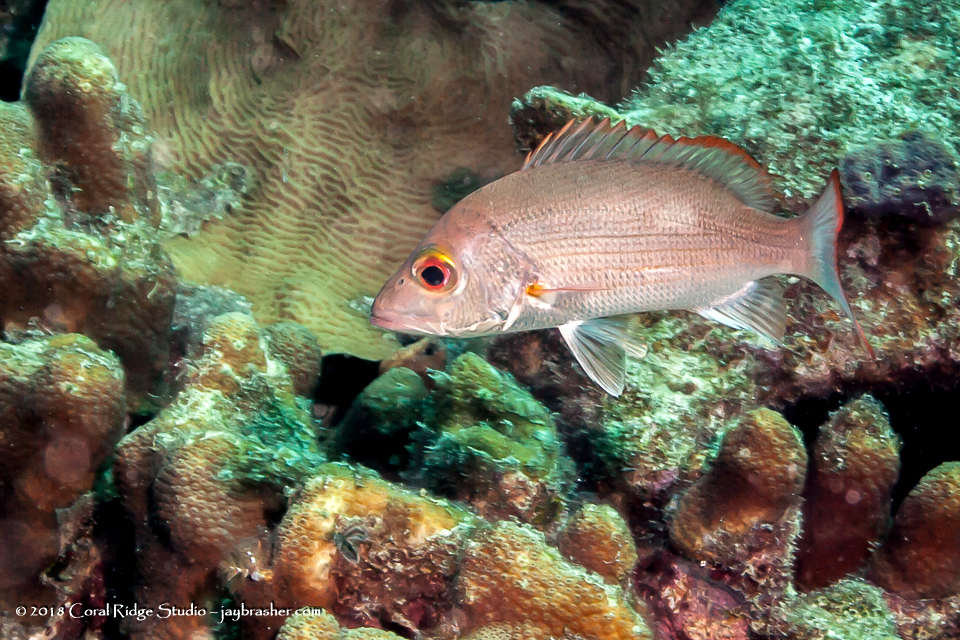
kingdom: Animalia
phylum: Chordata
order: Perciformes
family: Lutjanidae
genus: Lutjanus
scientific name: Lutjanus mahogoni
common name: Spot snapper
